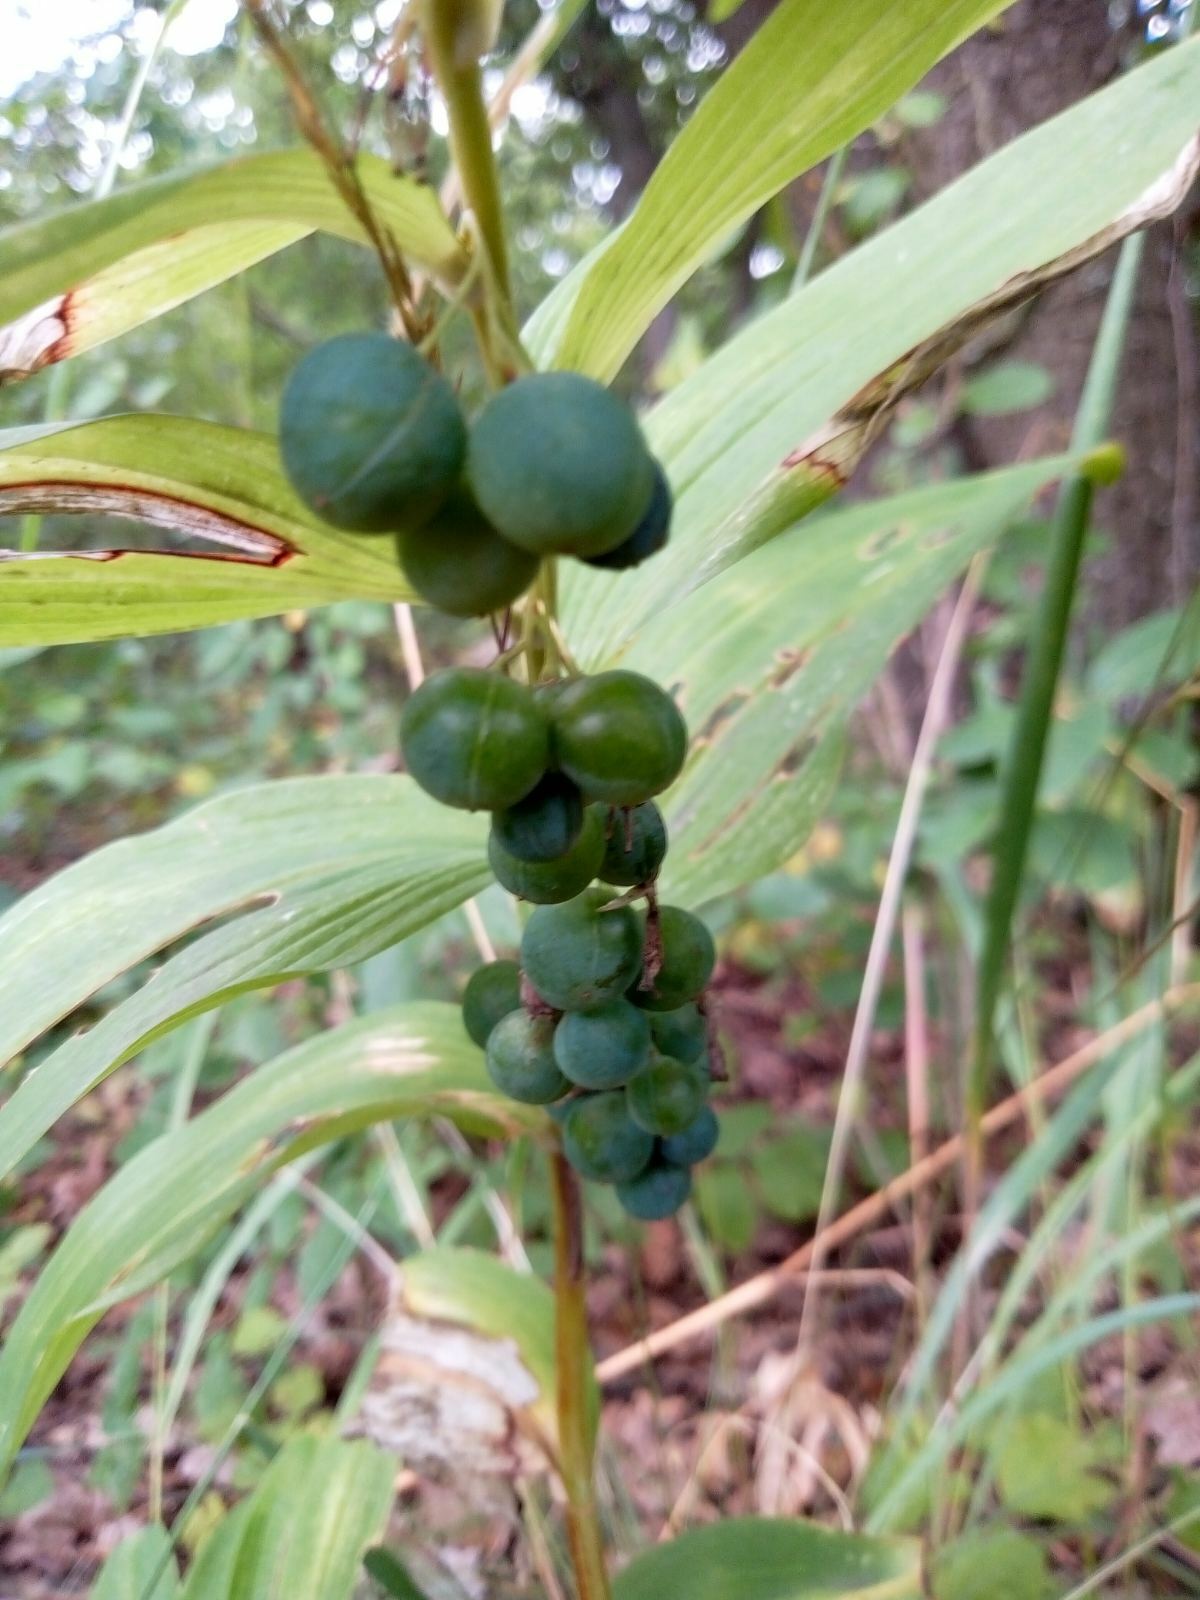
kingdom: Plantae
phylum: Tracheophyta
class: Liliopsida
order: Asparagales
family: Asparagaceae
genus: Polygonatum
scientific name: Polygonatum multiflorum
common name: Solomon's-seal
